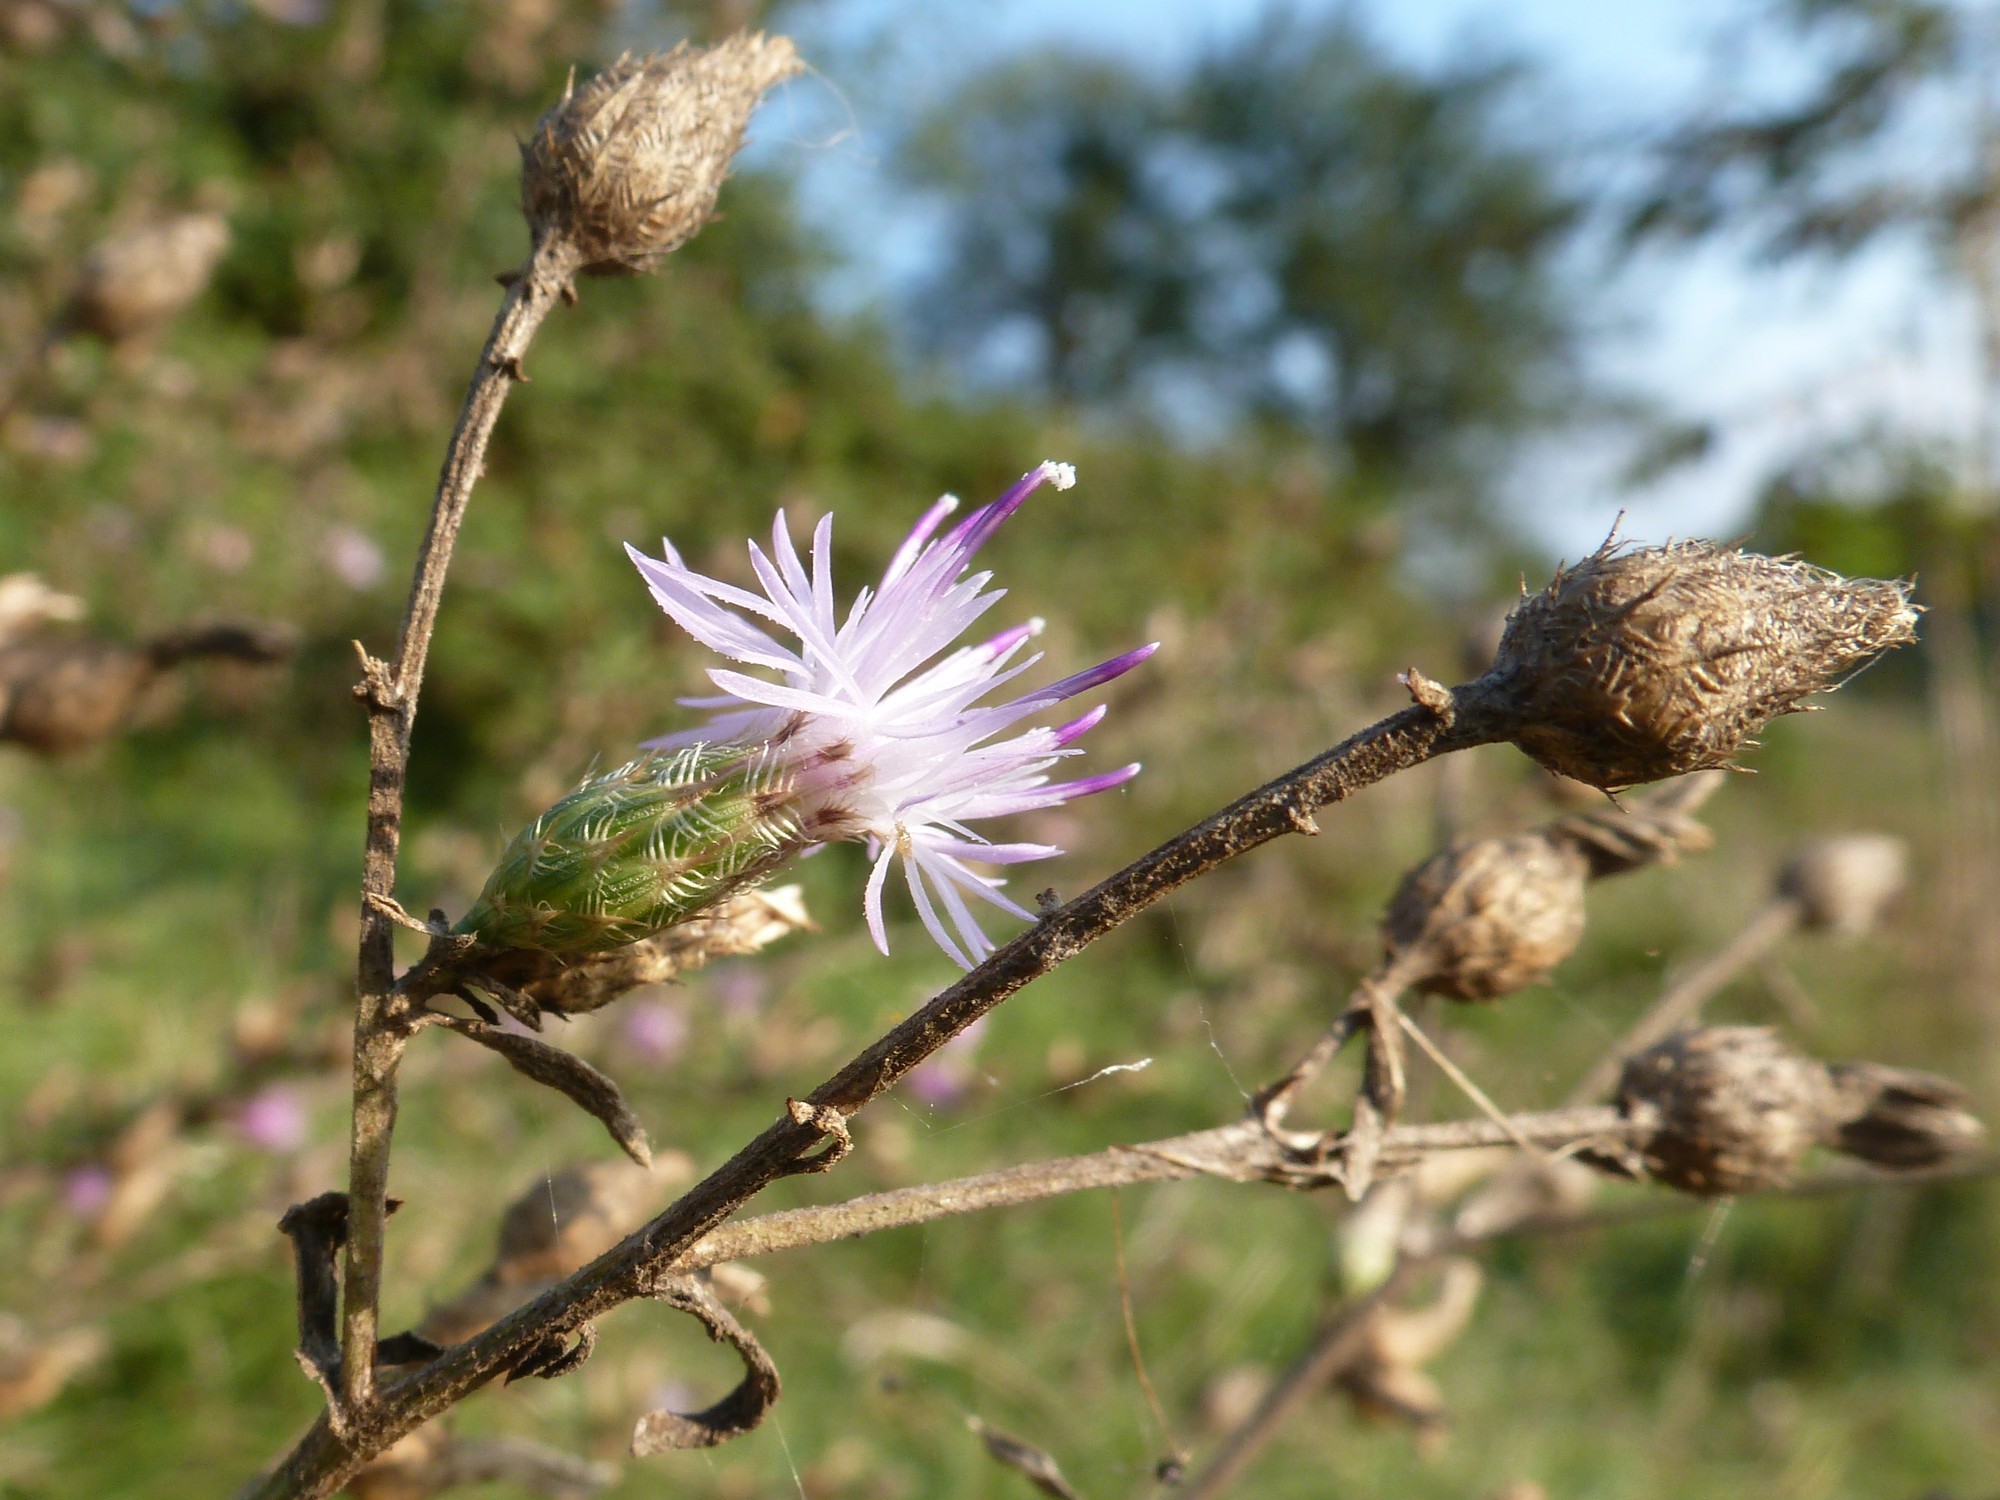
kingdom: Plantae
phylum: Tracheophyta
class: Magnoliopsida
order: Asterales
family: Asteraceae
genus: Centaurea
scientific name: Centaurea diffusa
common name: Diffuse knapweed
